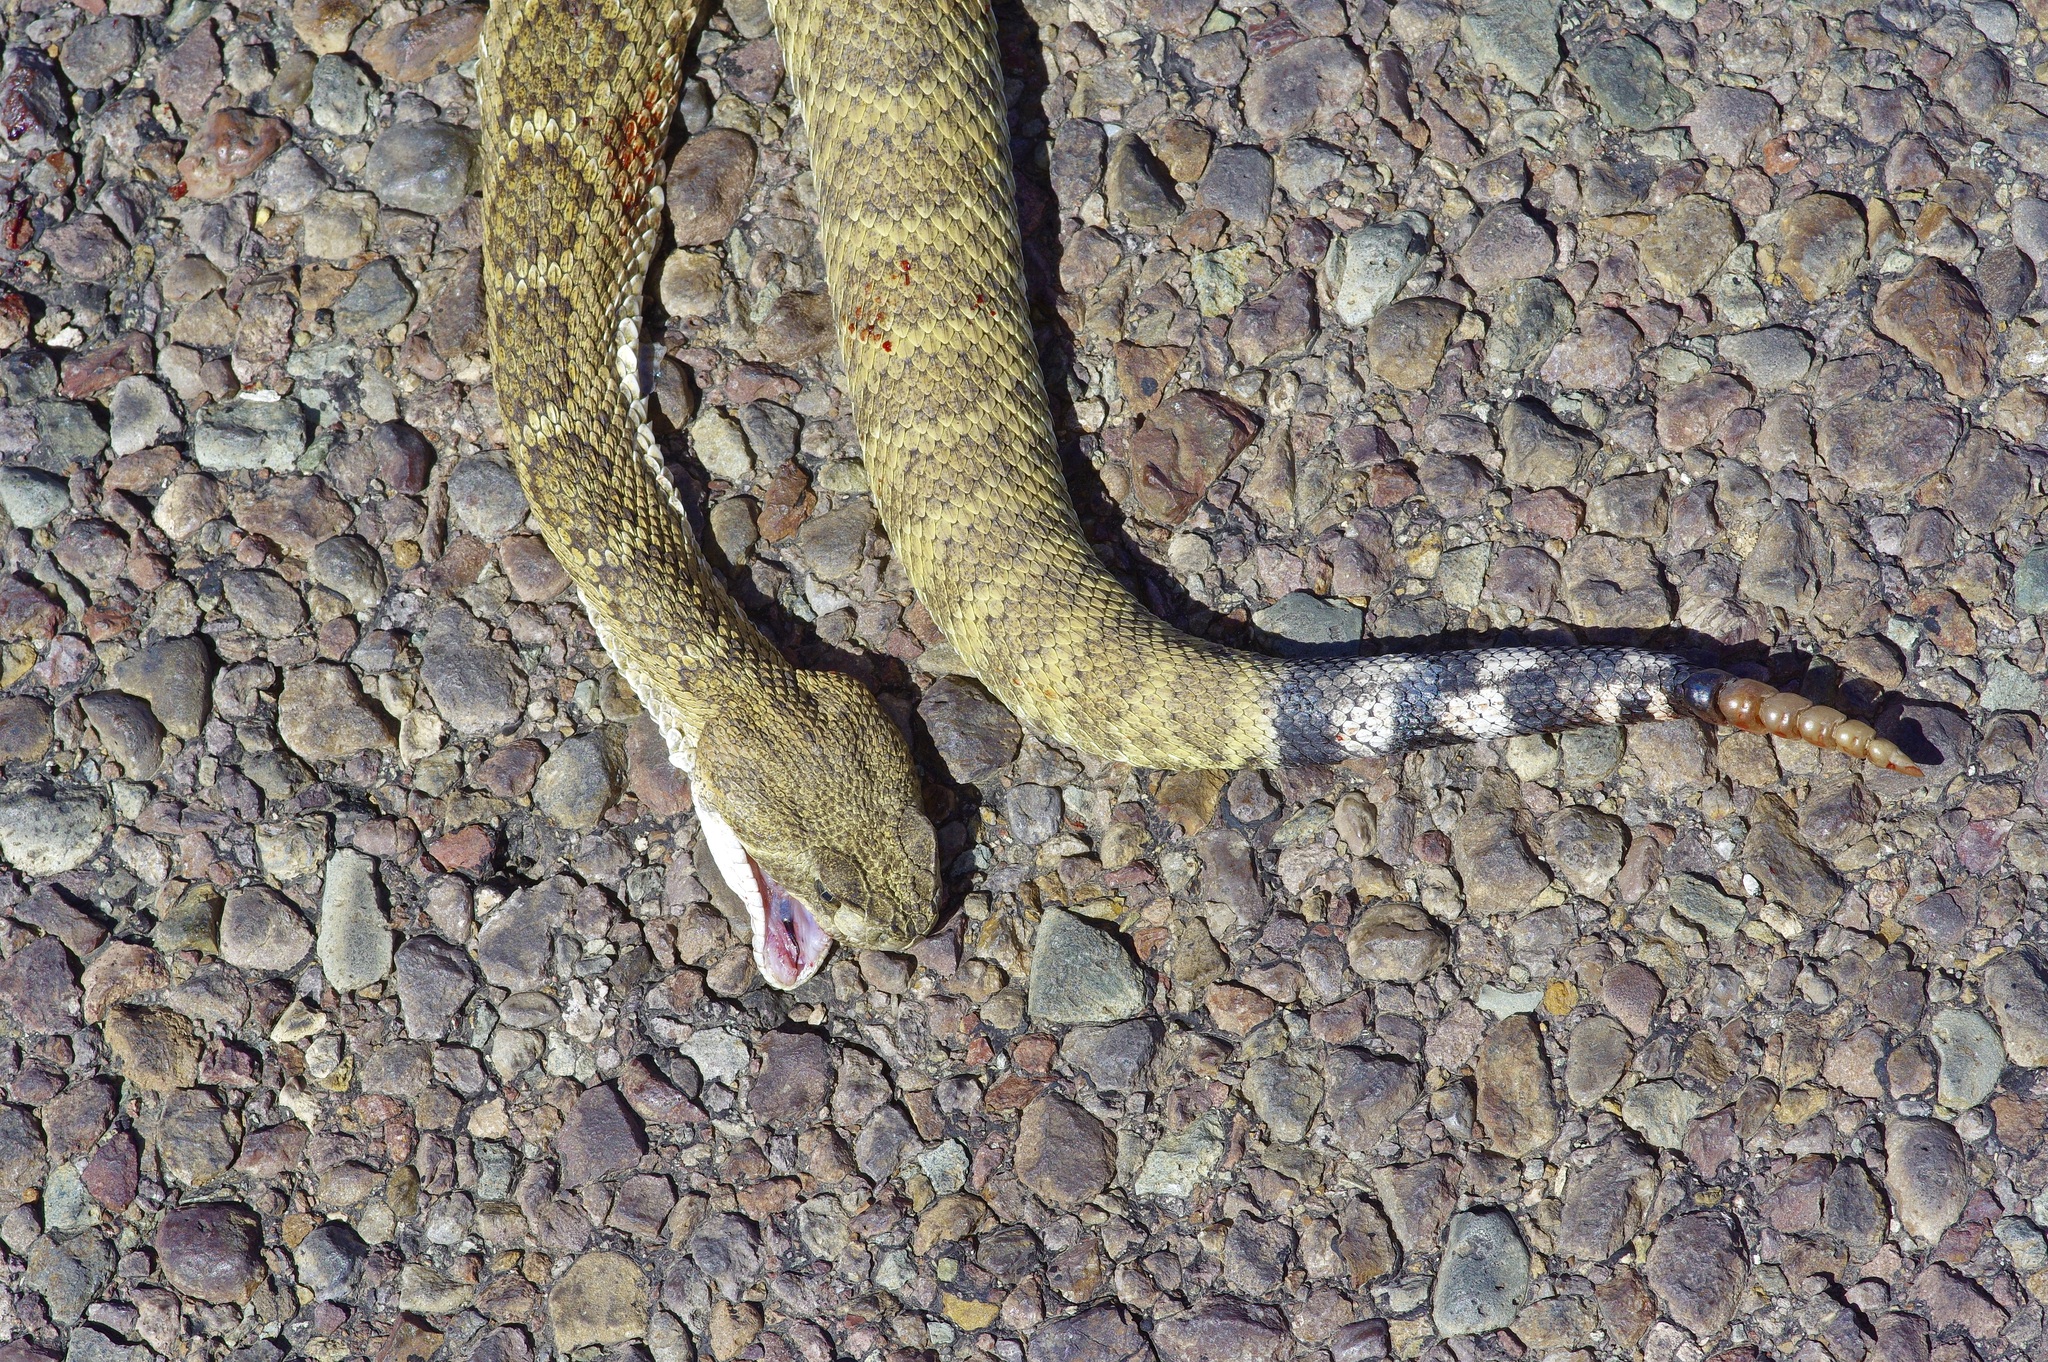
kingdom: Animalia
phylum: Chordata
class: Squamata
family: Viperidae
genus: Crotalus
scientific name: Crotalus atrox
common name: Western diamond-backed rattlesnake
